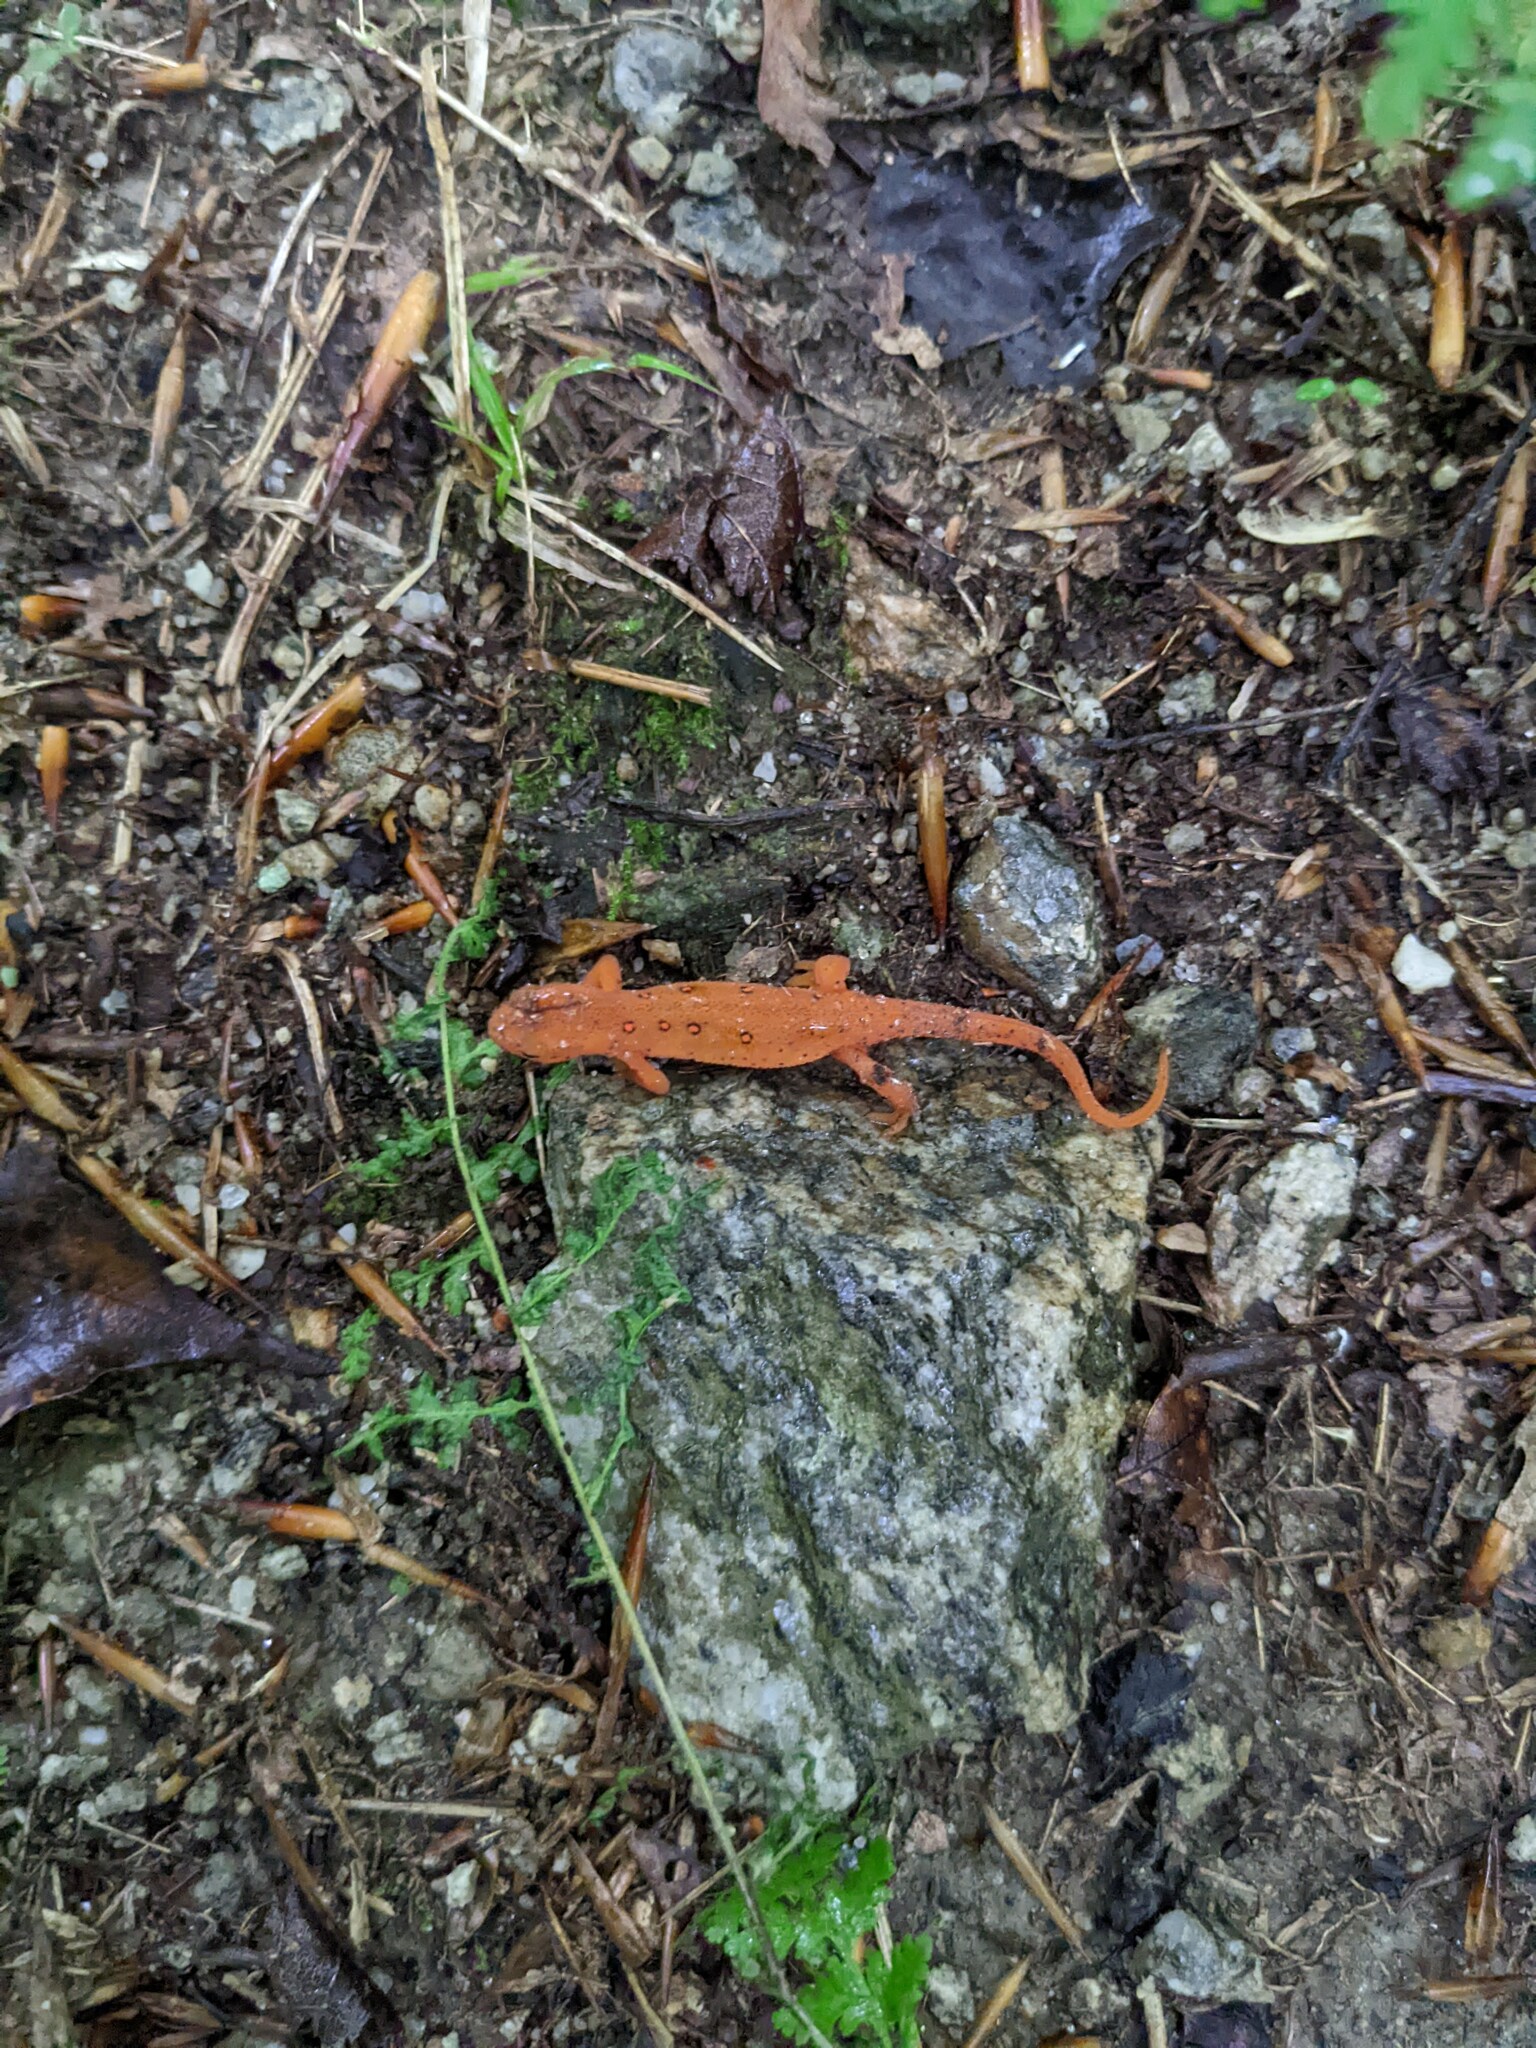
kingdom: Animalia
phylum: Chordata
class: Amphibia
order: Caudata
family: Salamandridae
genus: Notophthalmus
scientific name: Notophthalmus viridescens
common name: Eastern newt
